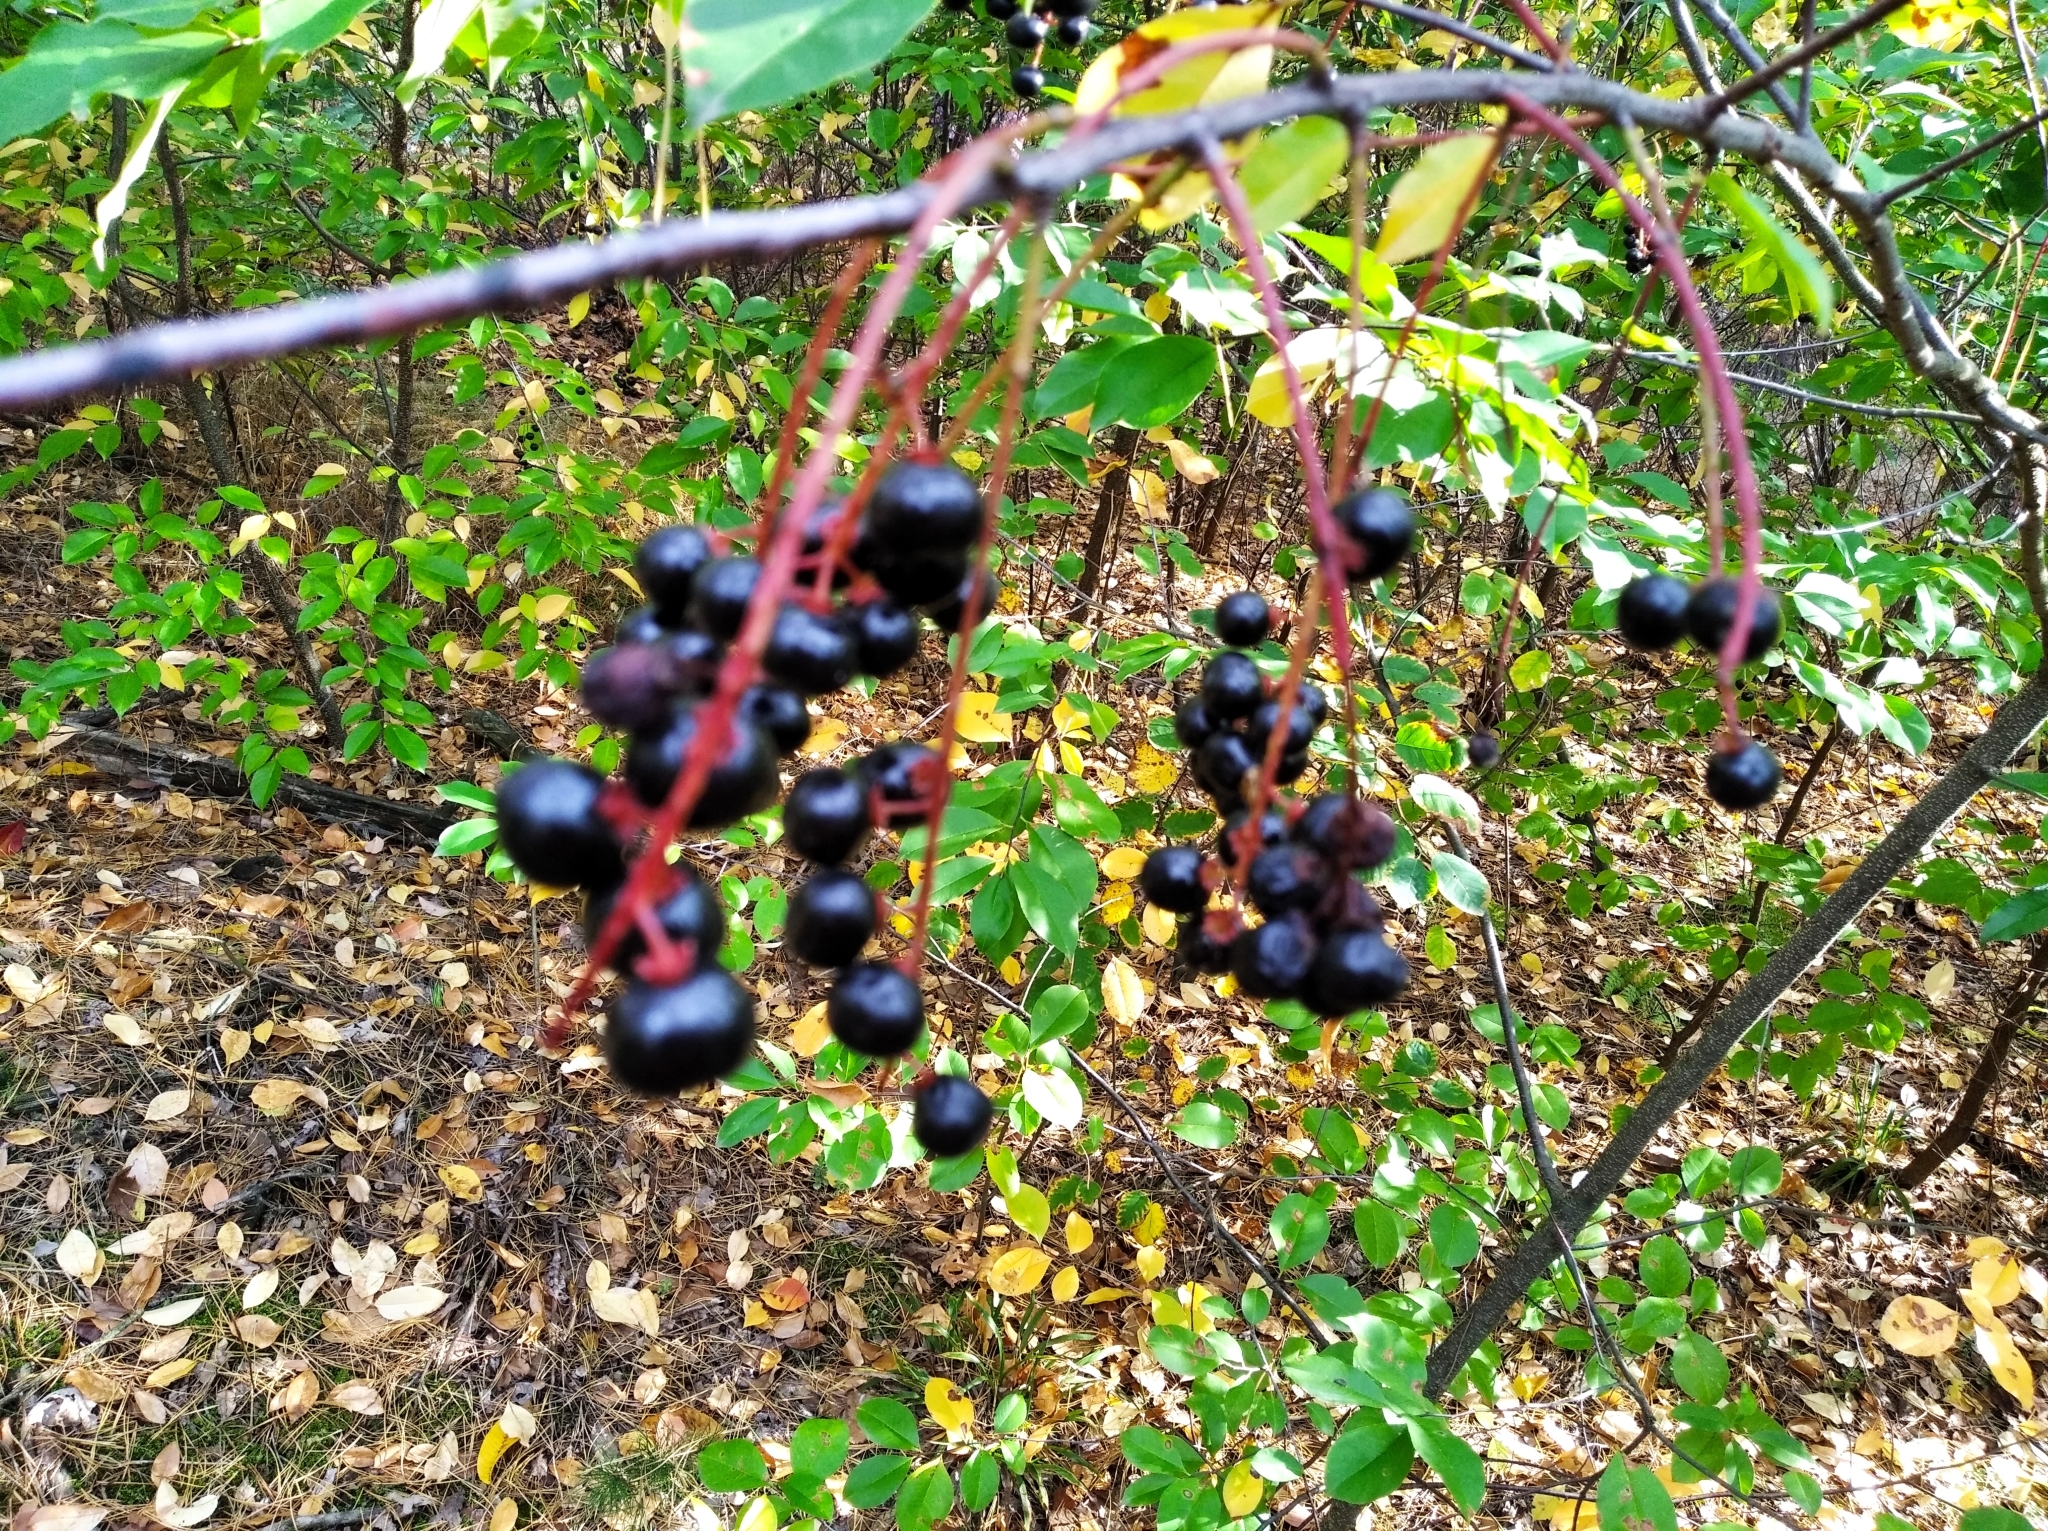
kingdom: Plantae
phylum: Tracheophyta
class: Magnoliopsida
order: Rosales
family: Rosaceae
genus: Prunus
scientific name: Prunus serotina
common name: Black cherry
